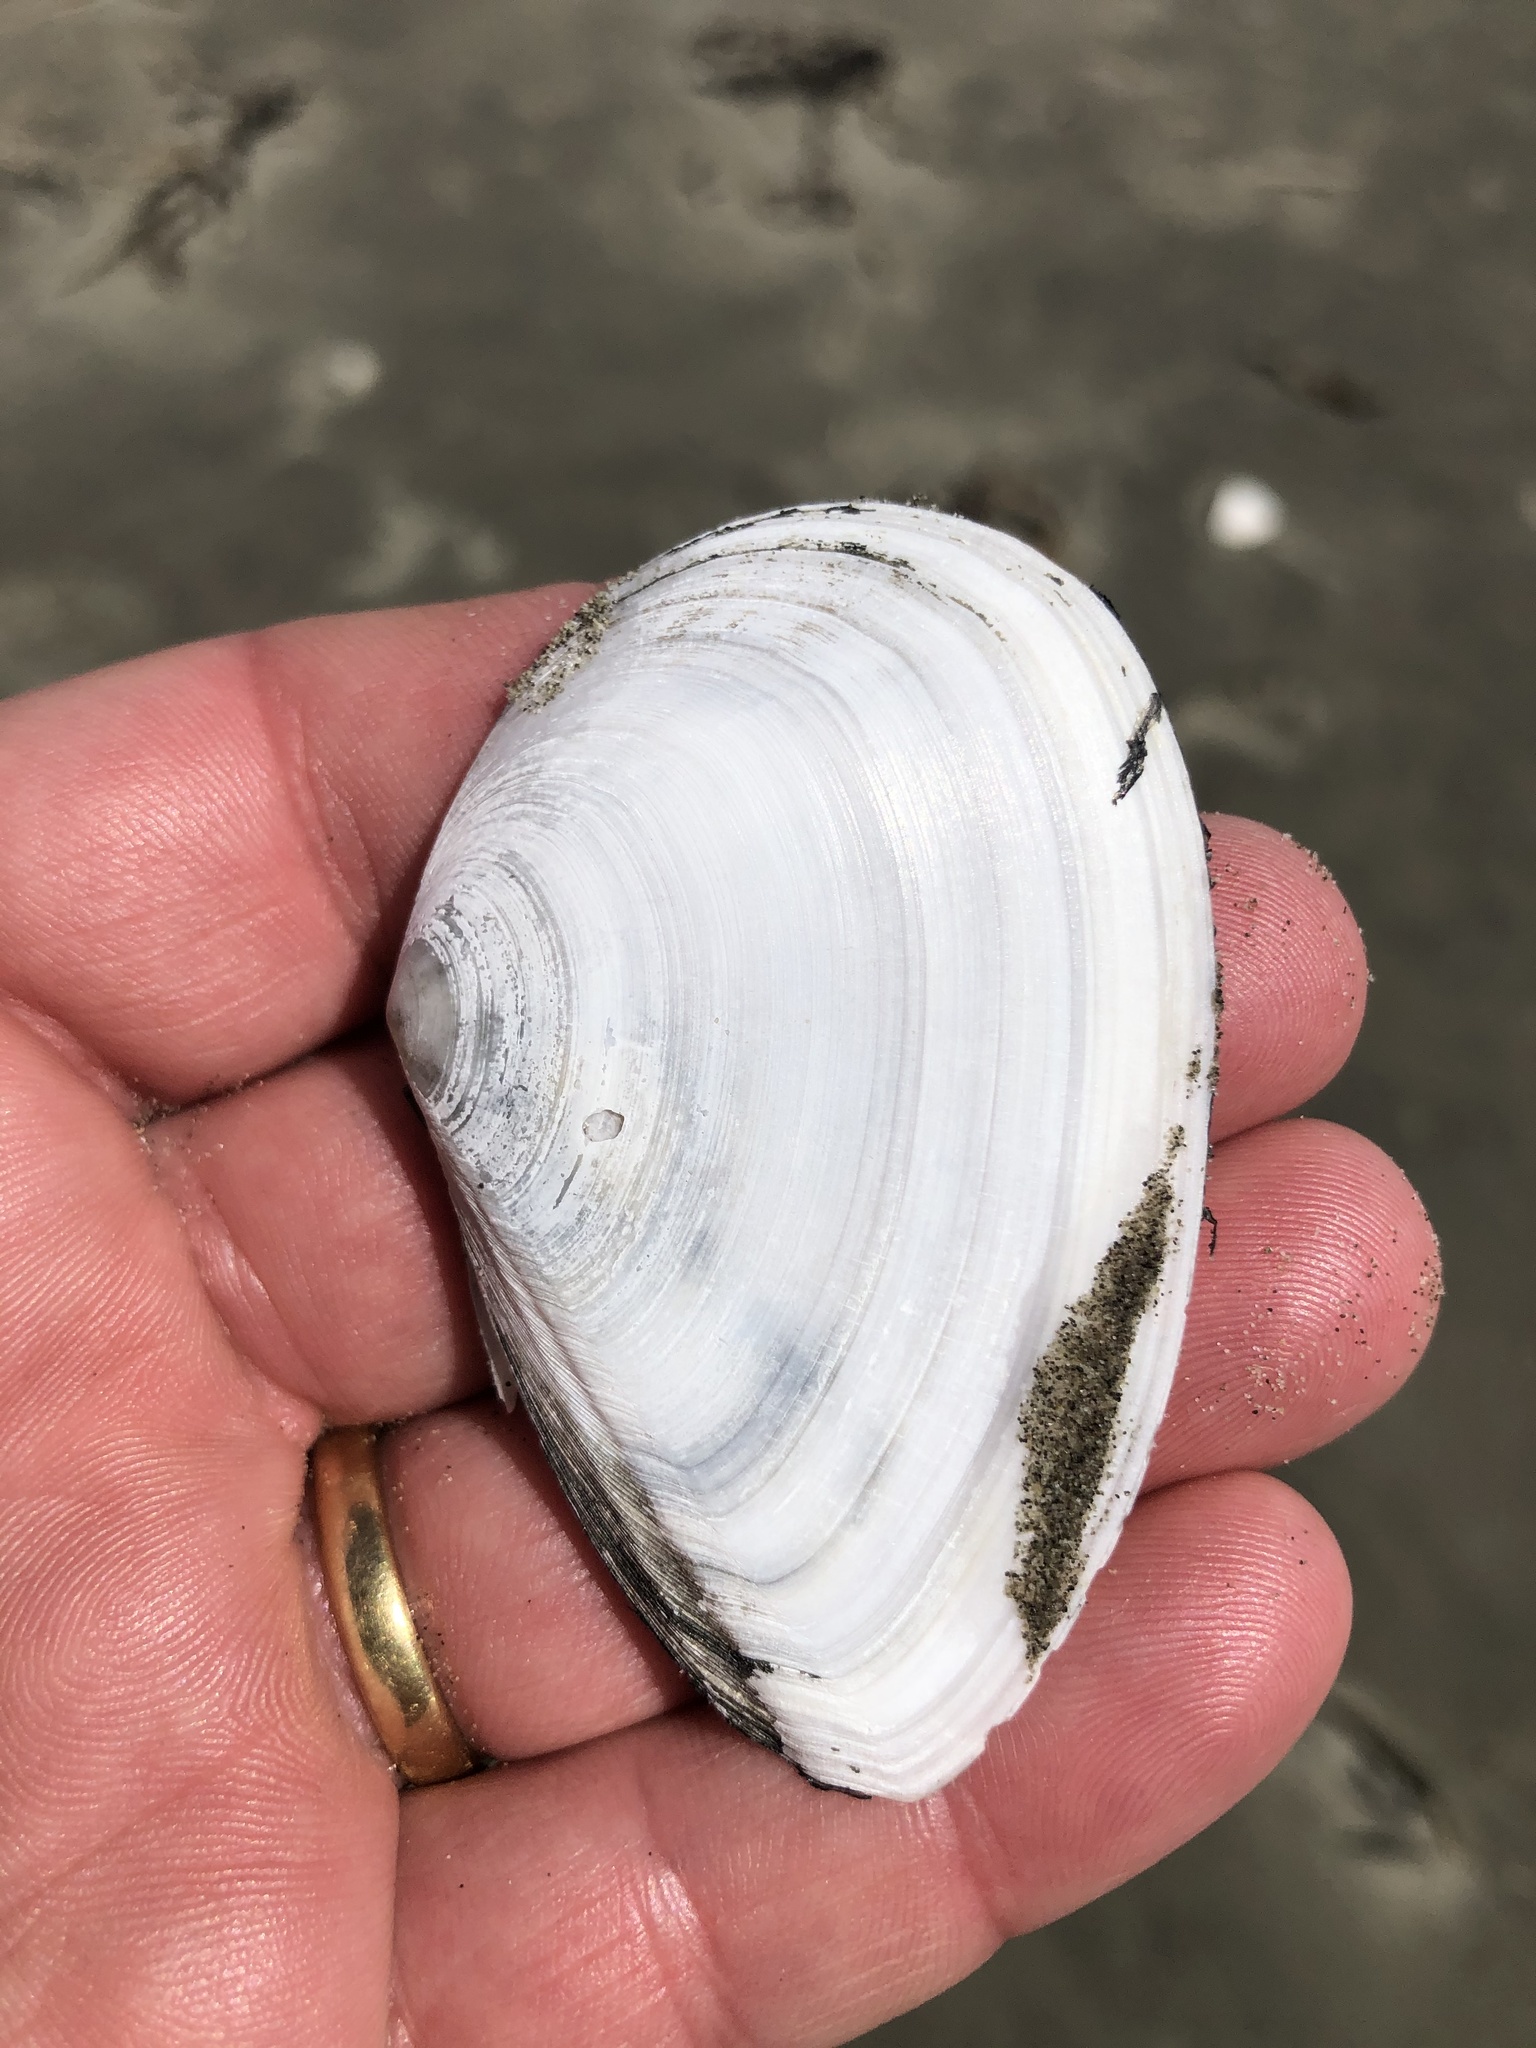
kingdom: Animalia
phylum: Mollusca
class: Bivalvia
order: Cardiida
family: Tellinidae
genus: Bartschicoma
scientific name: Bartschicoma gaimardi
